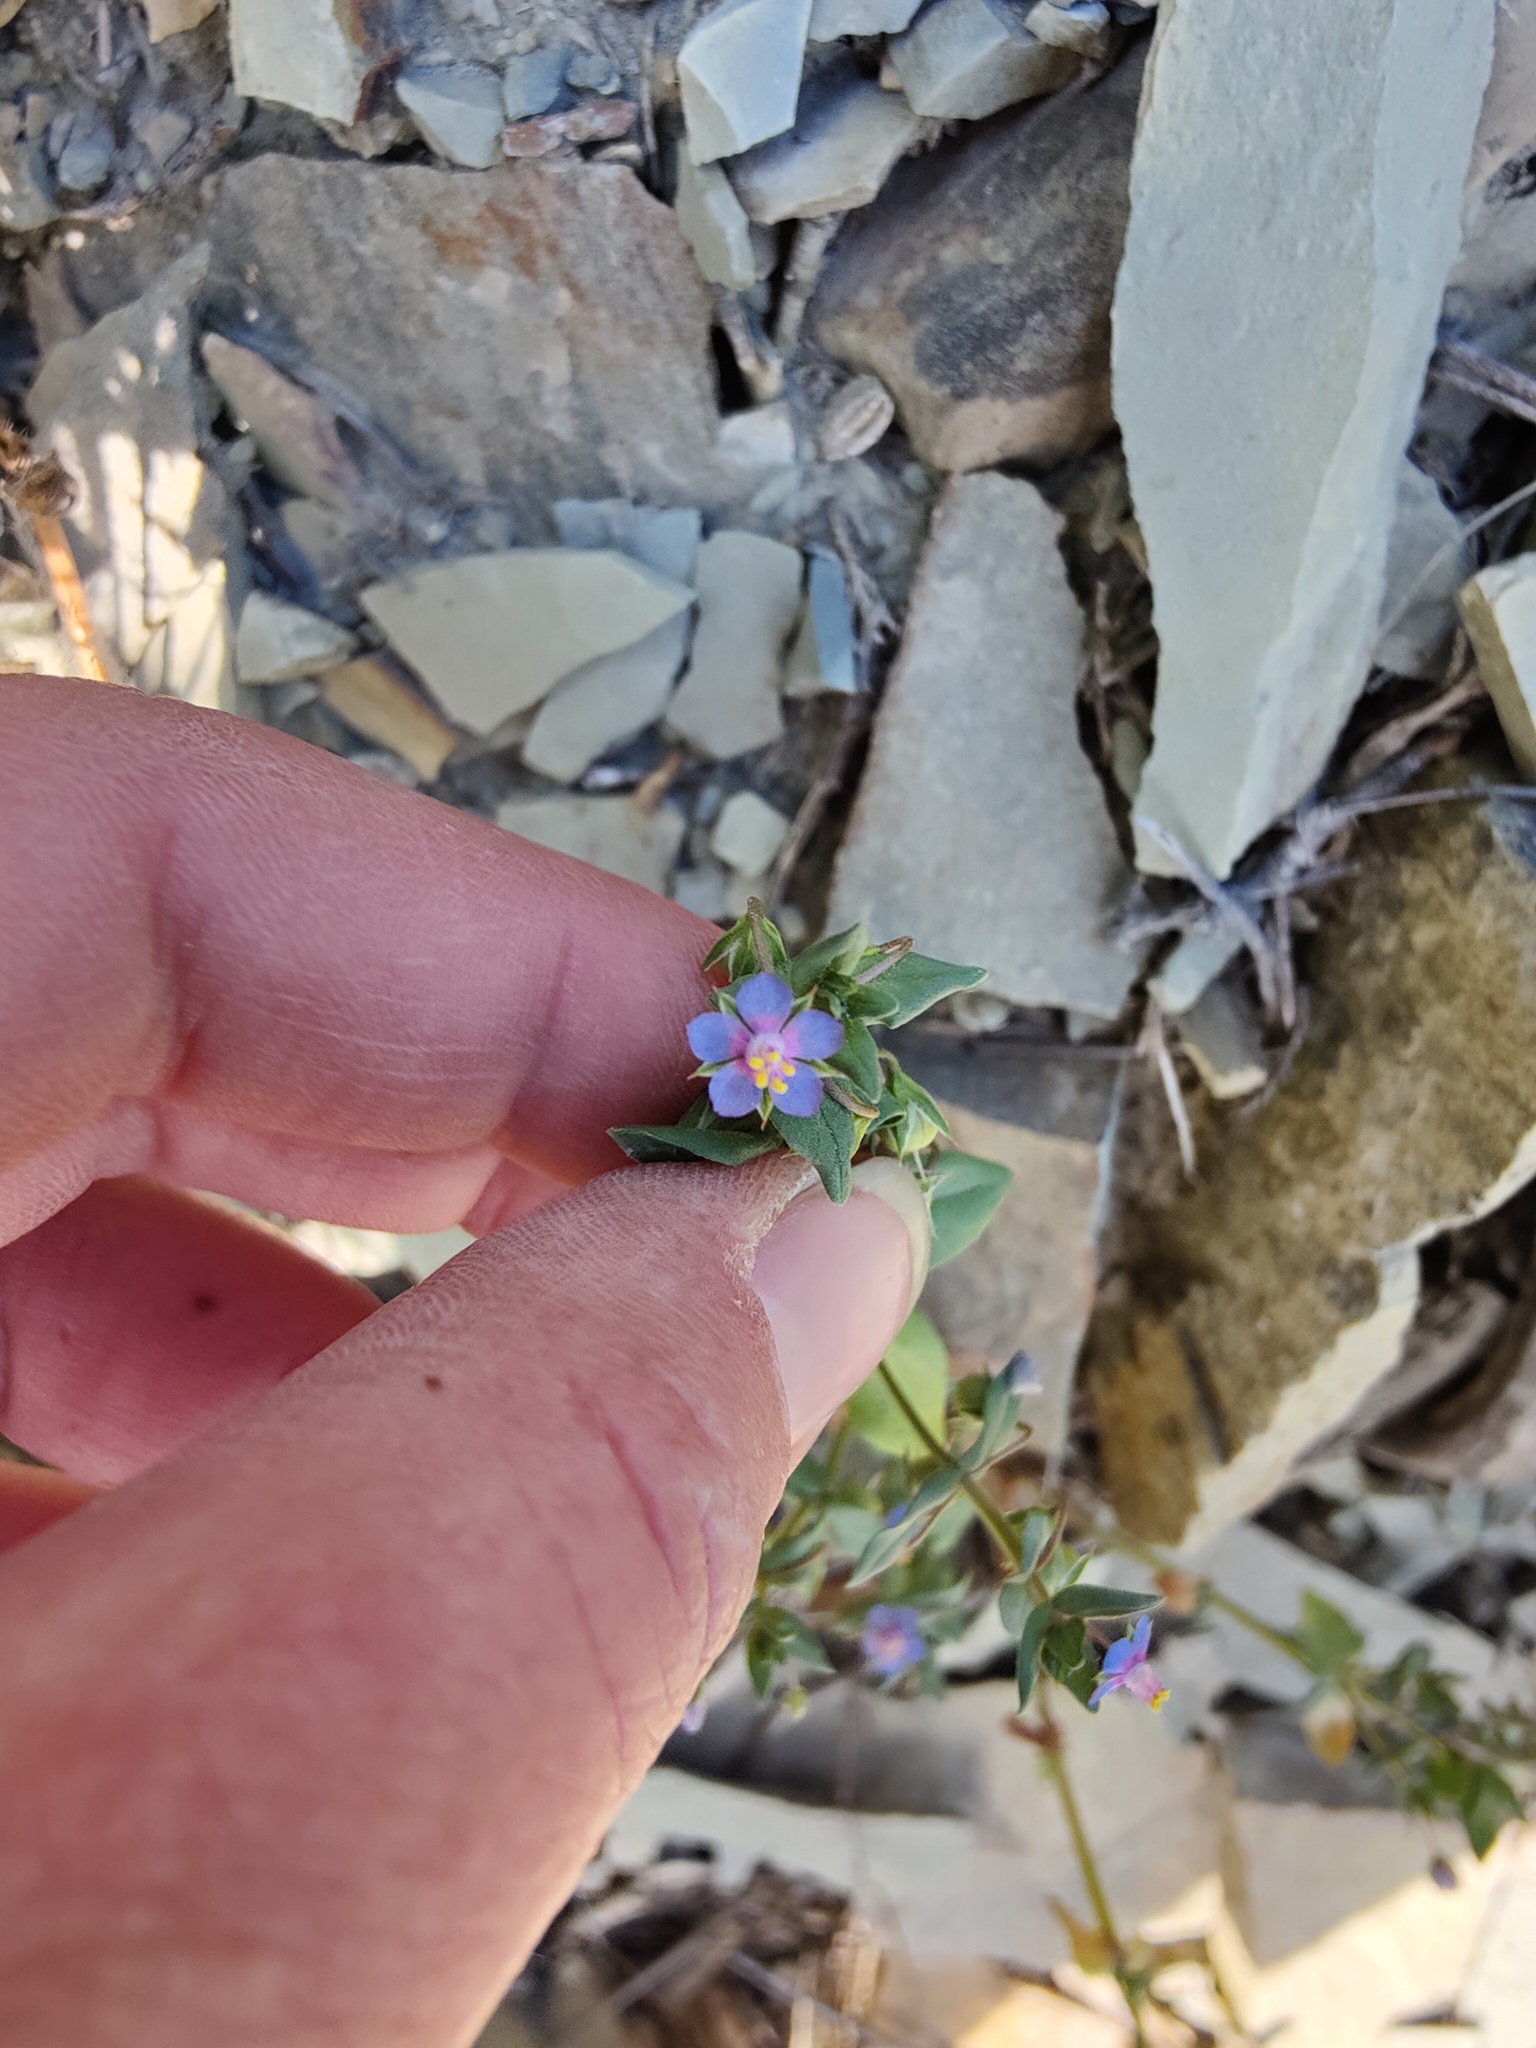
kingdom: Plantae
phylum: Tracheophyta
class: Magnoliopsida
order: Ericales
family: Primulaceae
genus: Lysimachia
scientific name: Lysimachia foemina
